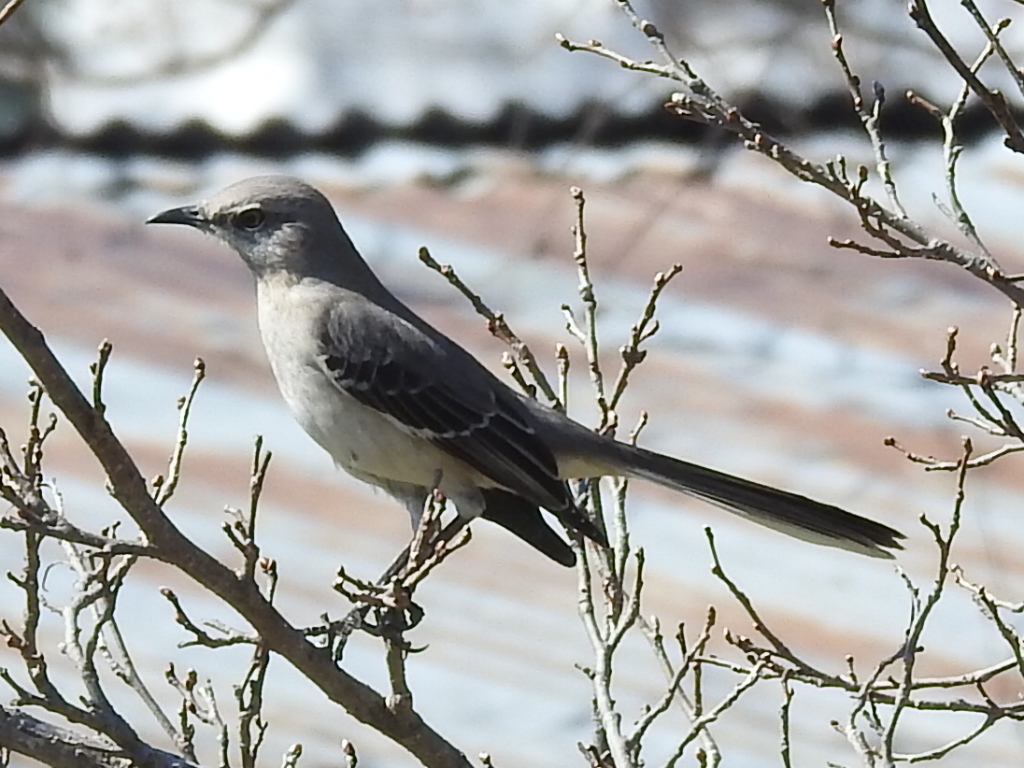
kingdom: Animalia
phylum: Chordata
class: Aves
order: Passeriformes
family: Mimidae
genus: Mimus
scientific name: Mimus polyglottos
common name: Northern mockingbird
